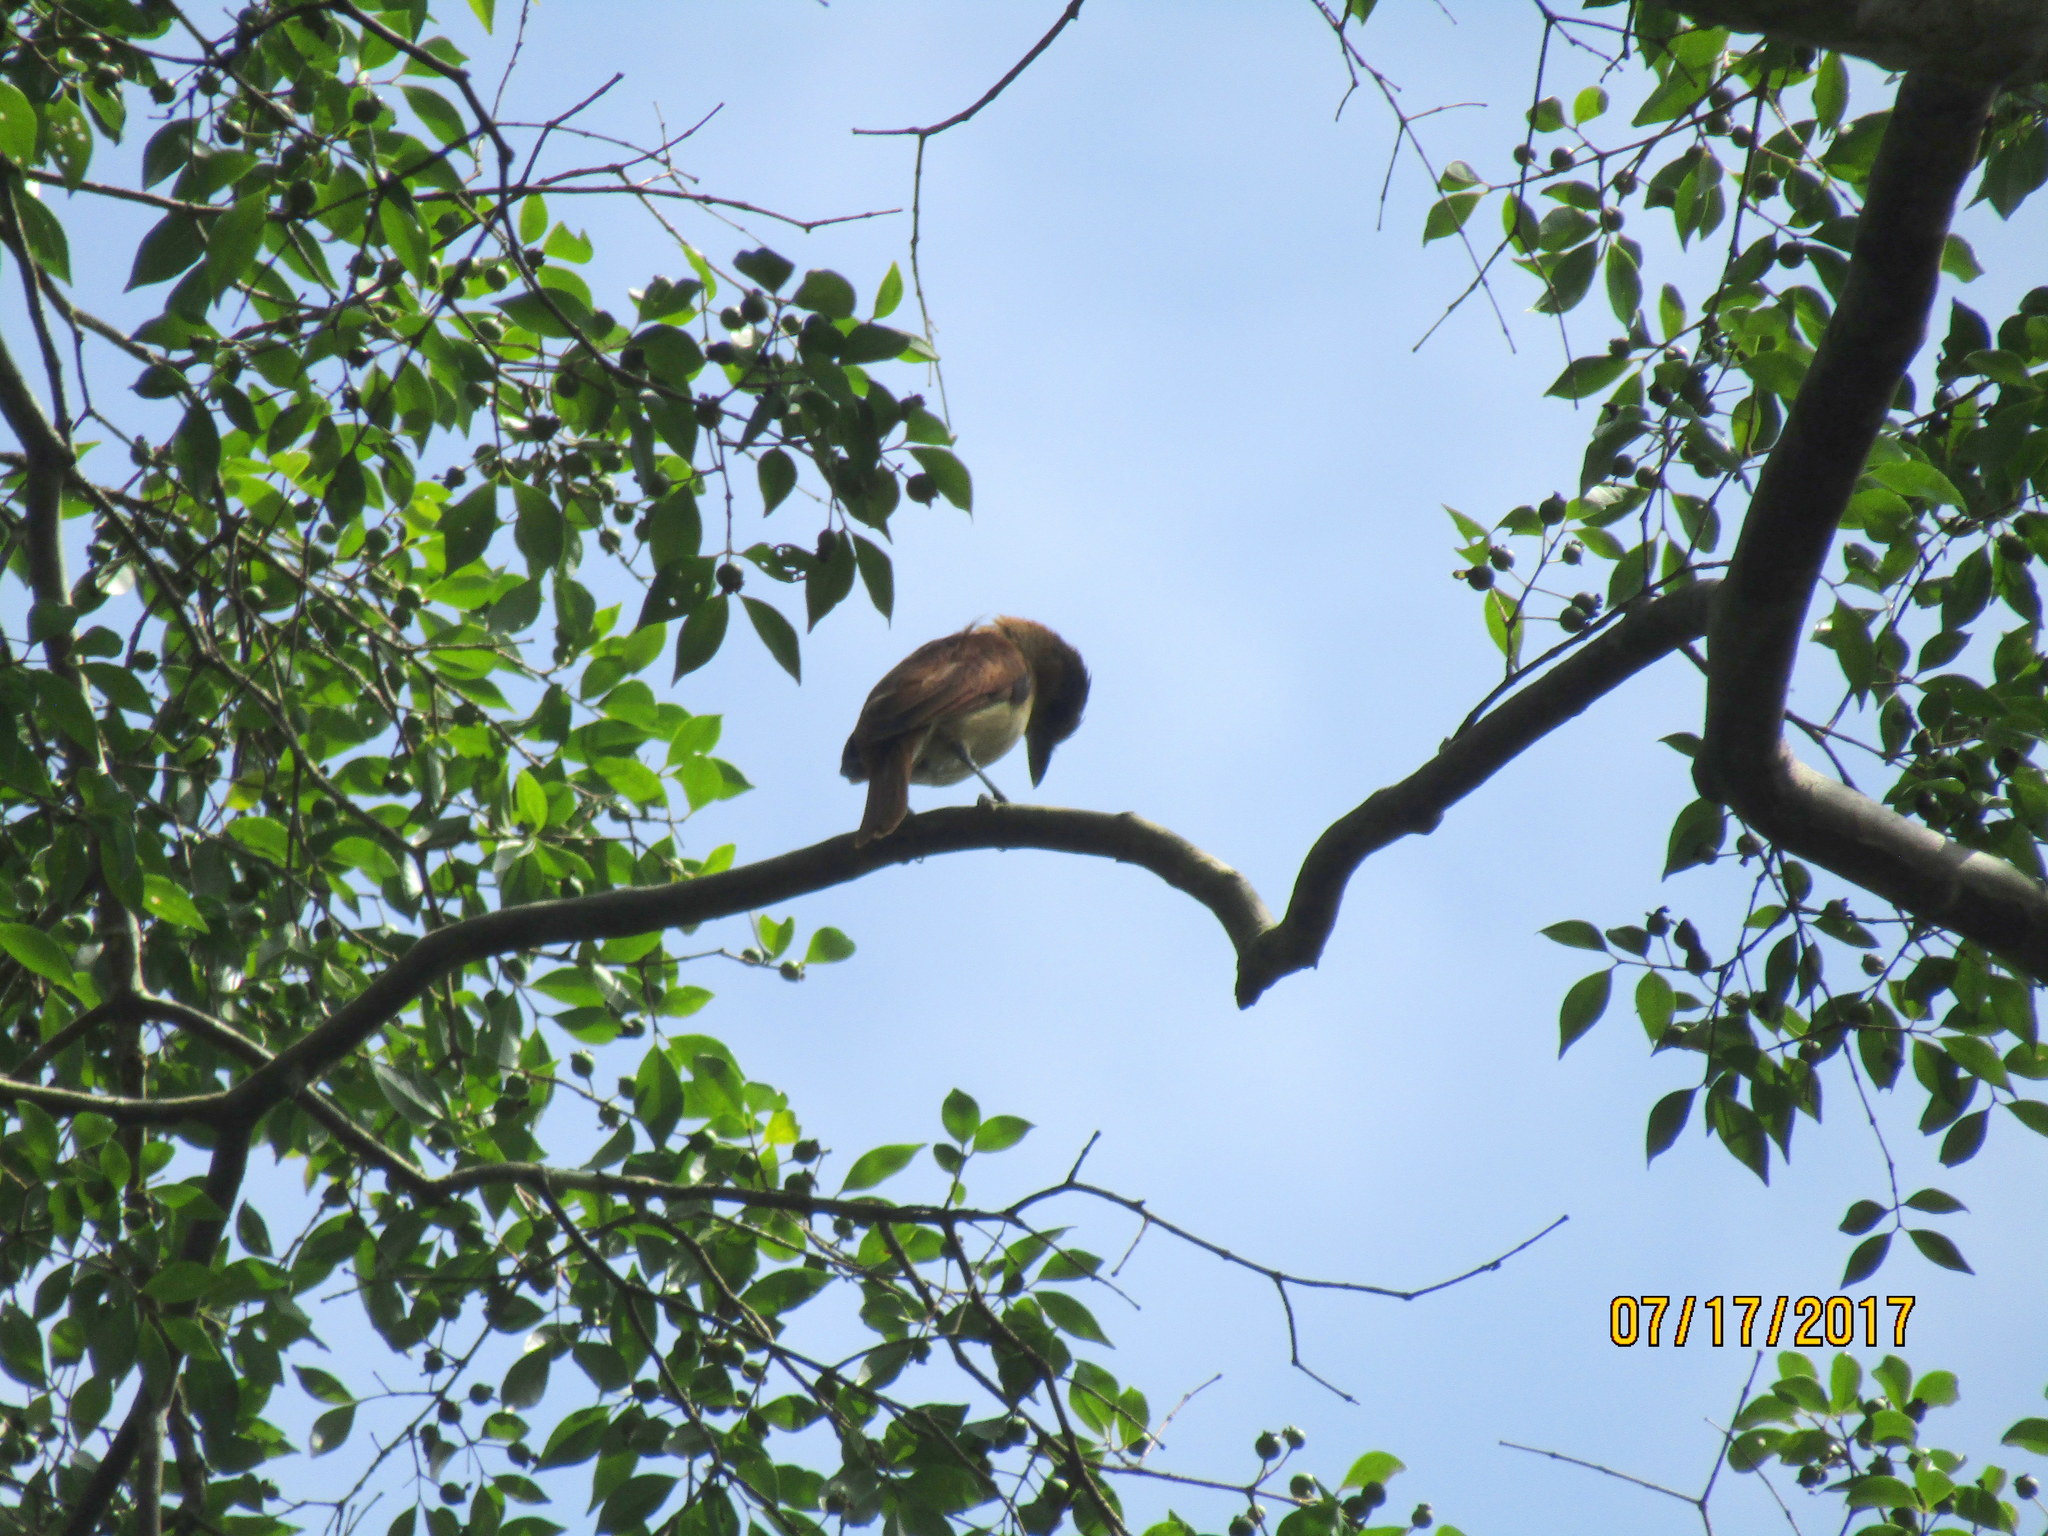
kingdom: Animalia
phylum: Chordata
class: Aves
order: Passeriformes
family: Cotingidae
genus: Pachyramphus
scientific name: Pachyramphus aglaiae
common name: Rose-throated becard
